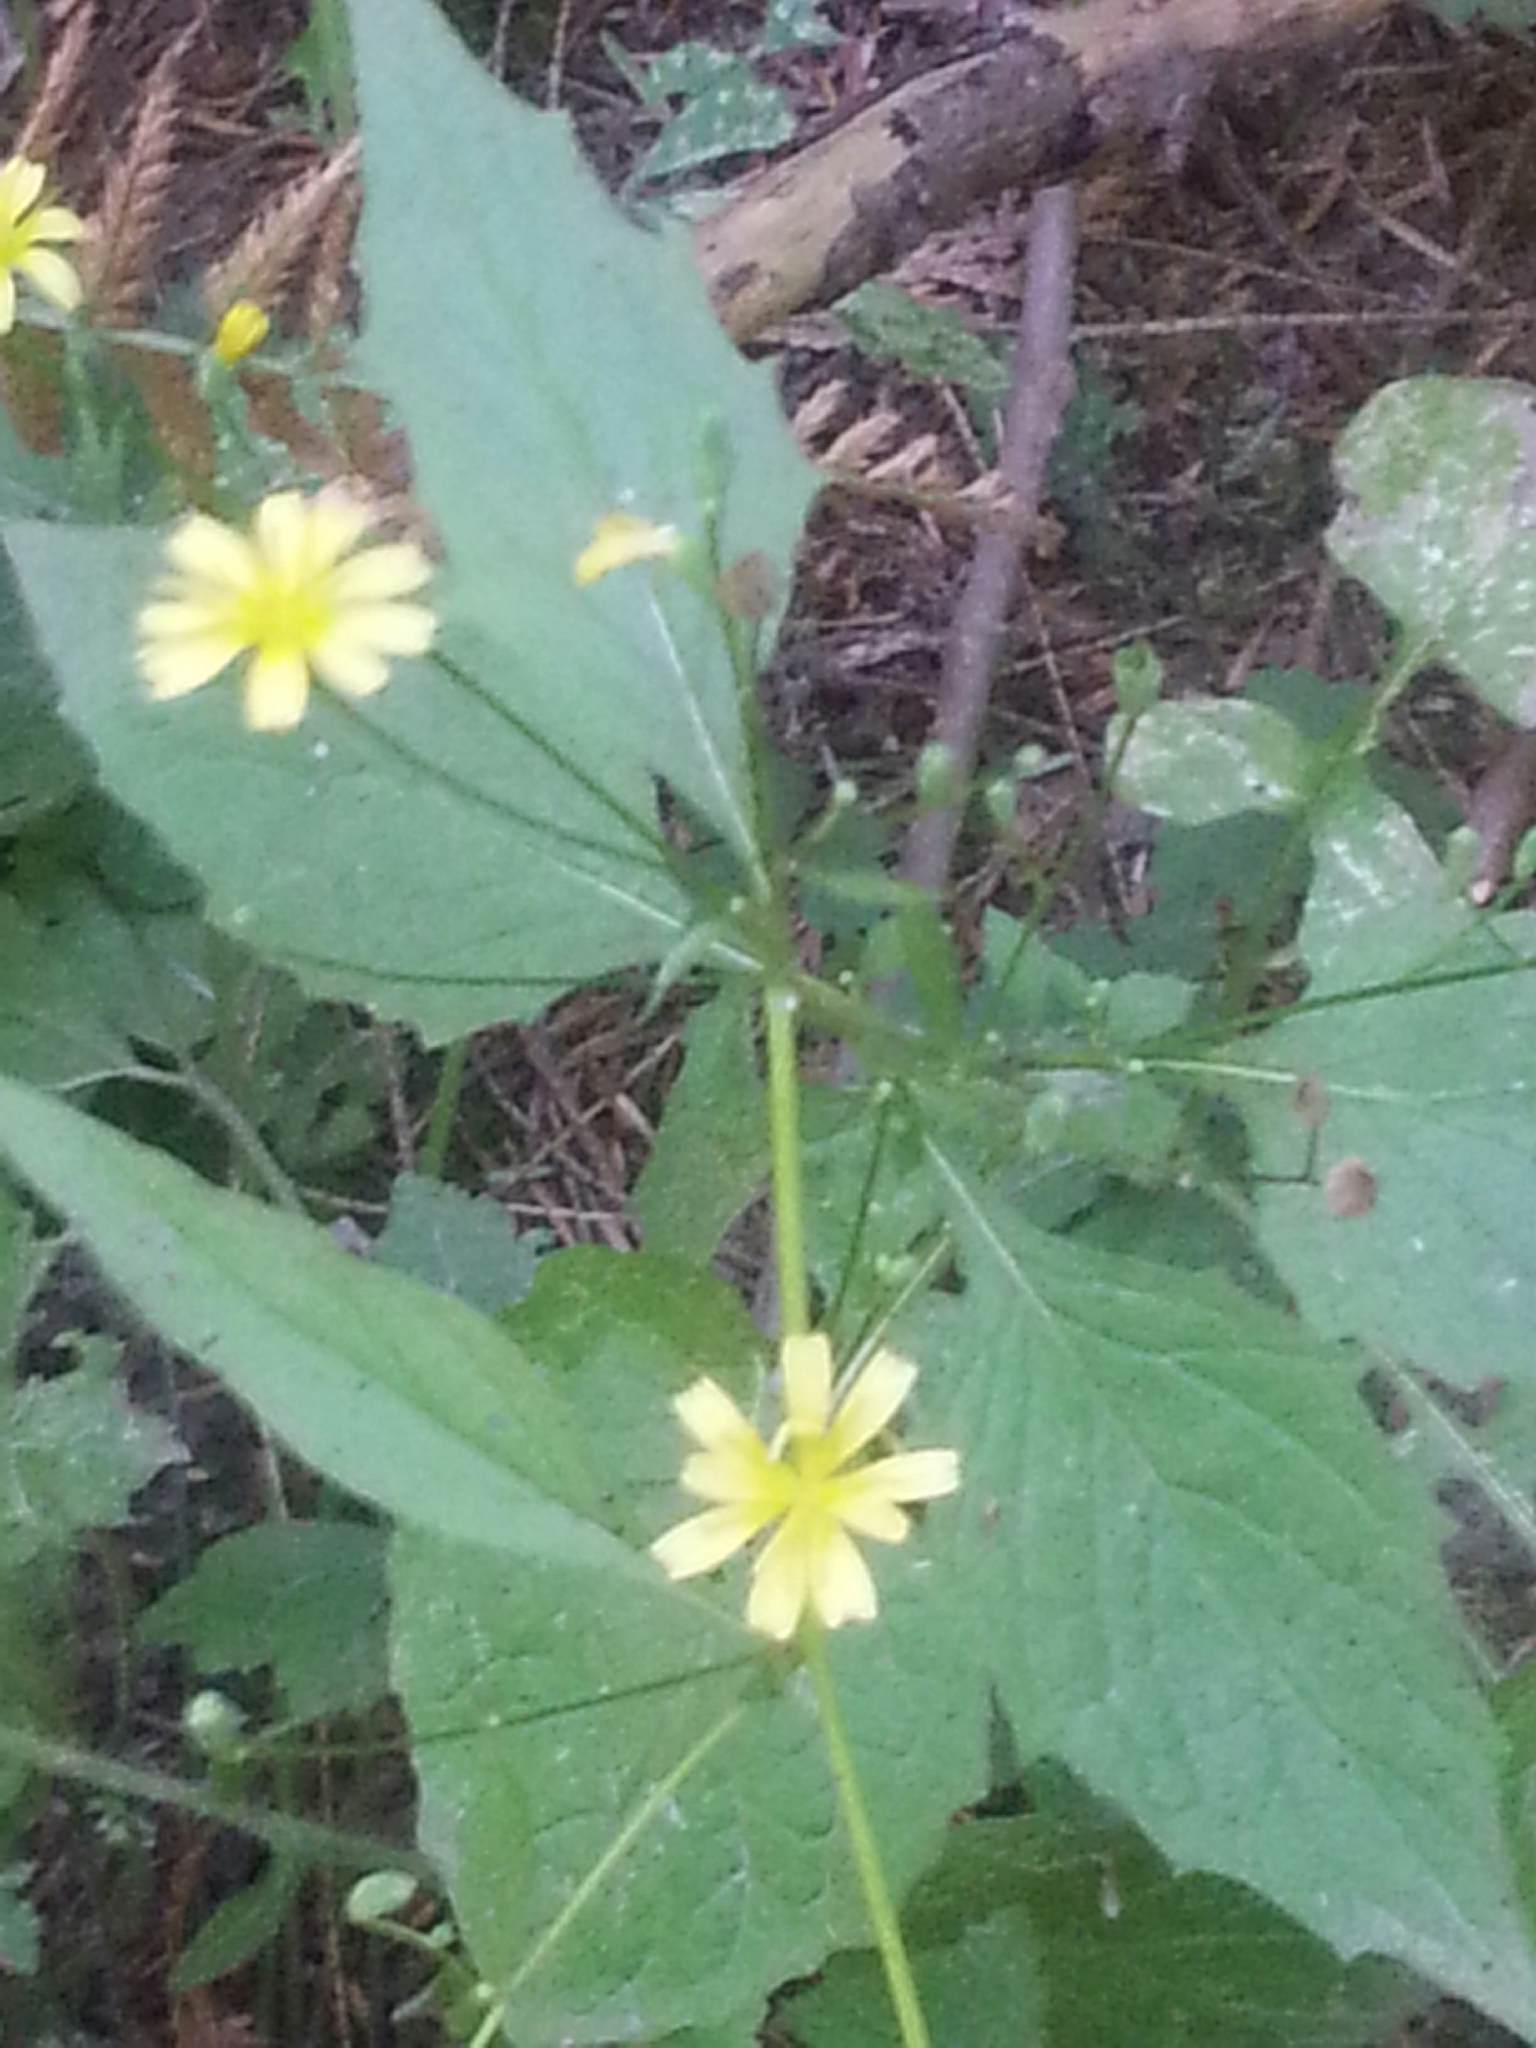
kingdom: Plantae
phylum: Tracheophyta
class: Magnoliopsida
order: Asterales
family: Asteraceae
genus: Lapsana
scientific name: Lapsana communis
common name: Nipplewort
